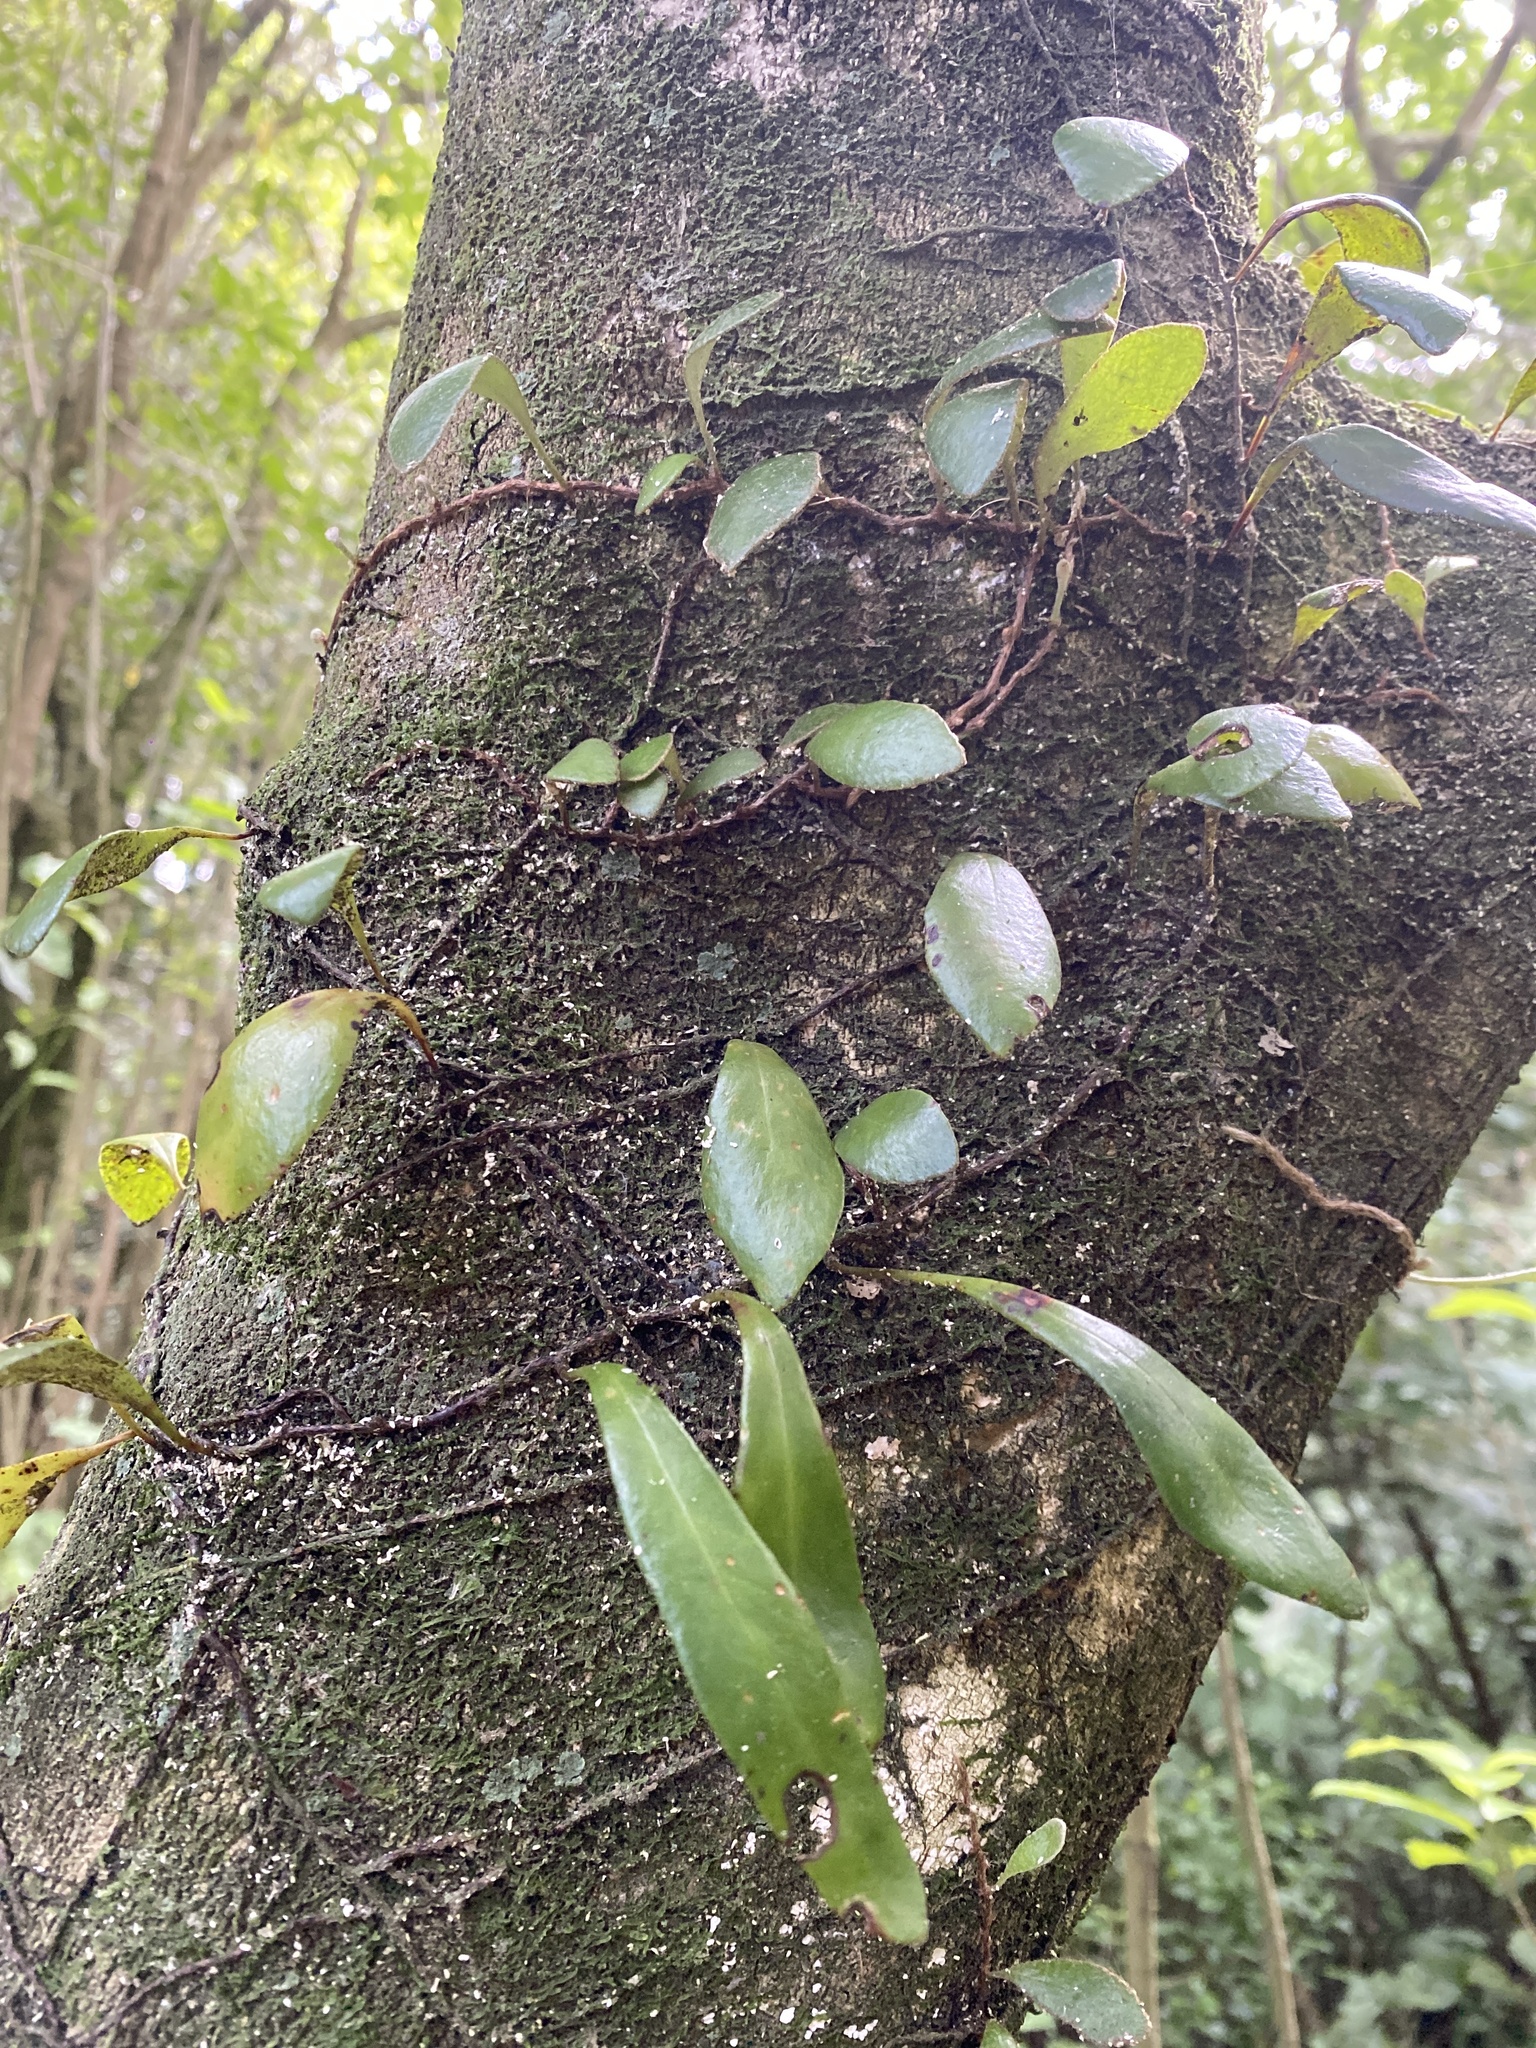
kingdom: Plantae
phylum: Tracheophyta
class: Polypodiopsida
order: Polypodiales
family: Polypodiaceae
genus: Pyrrosia
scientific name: Pyrrosia eleagnifolia
